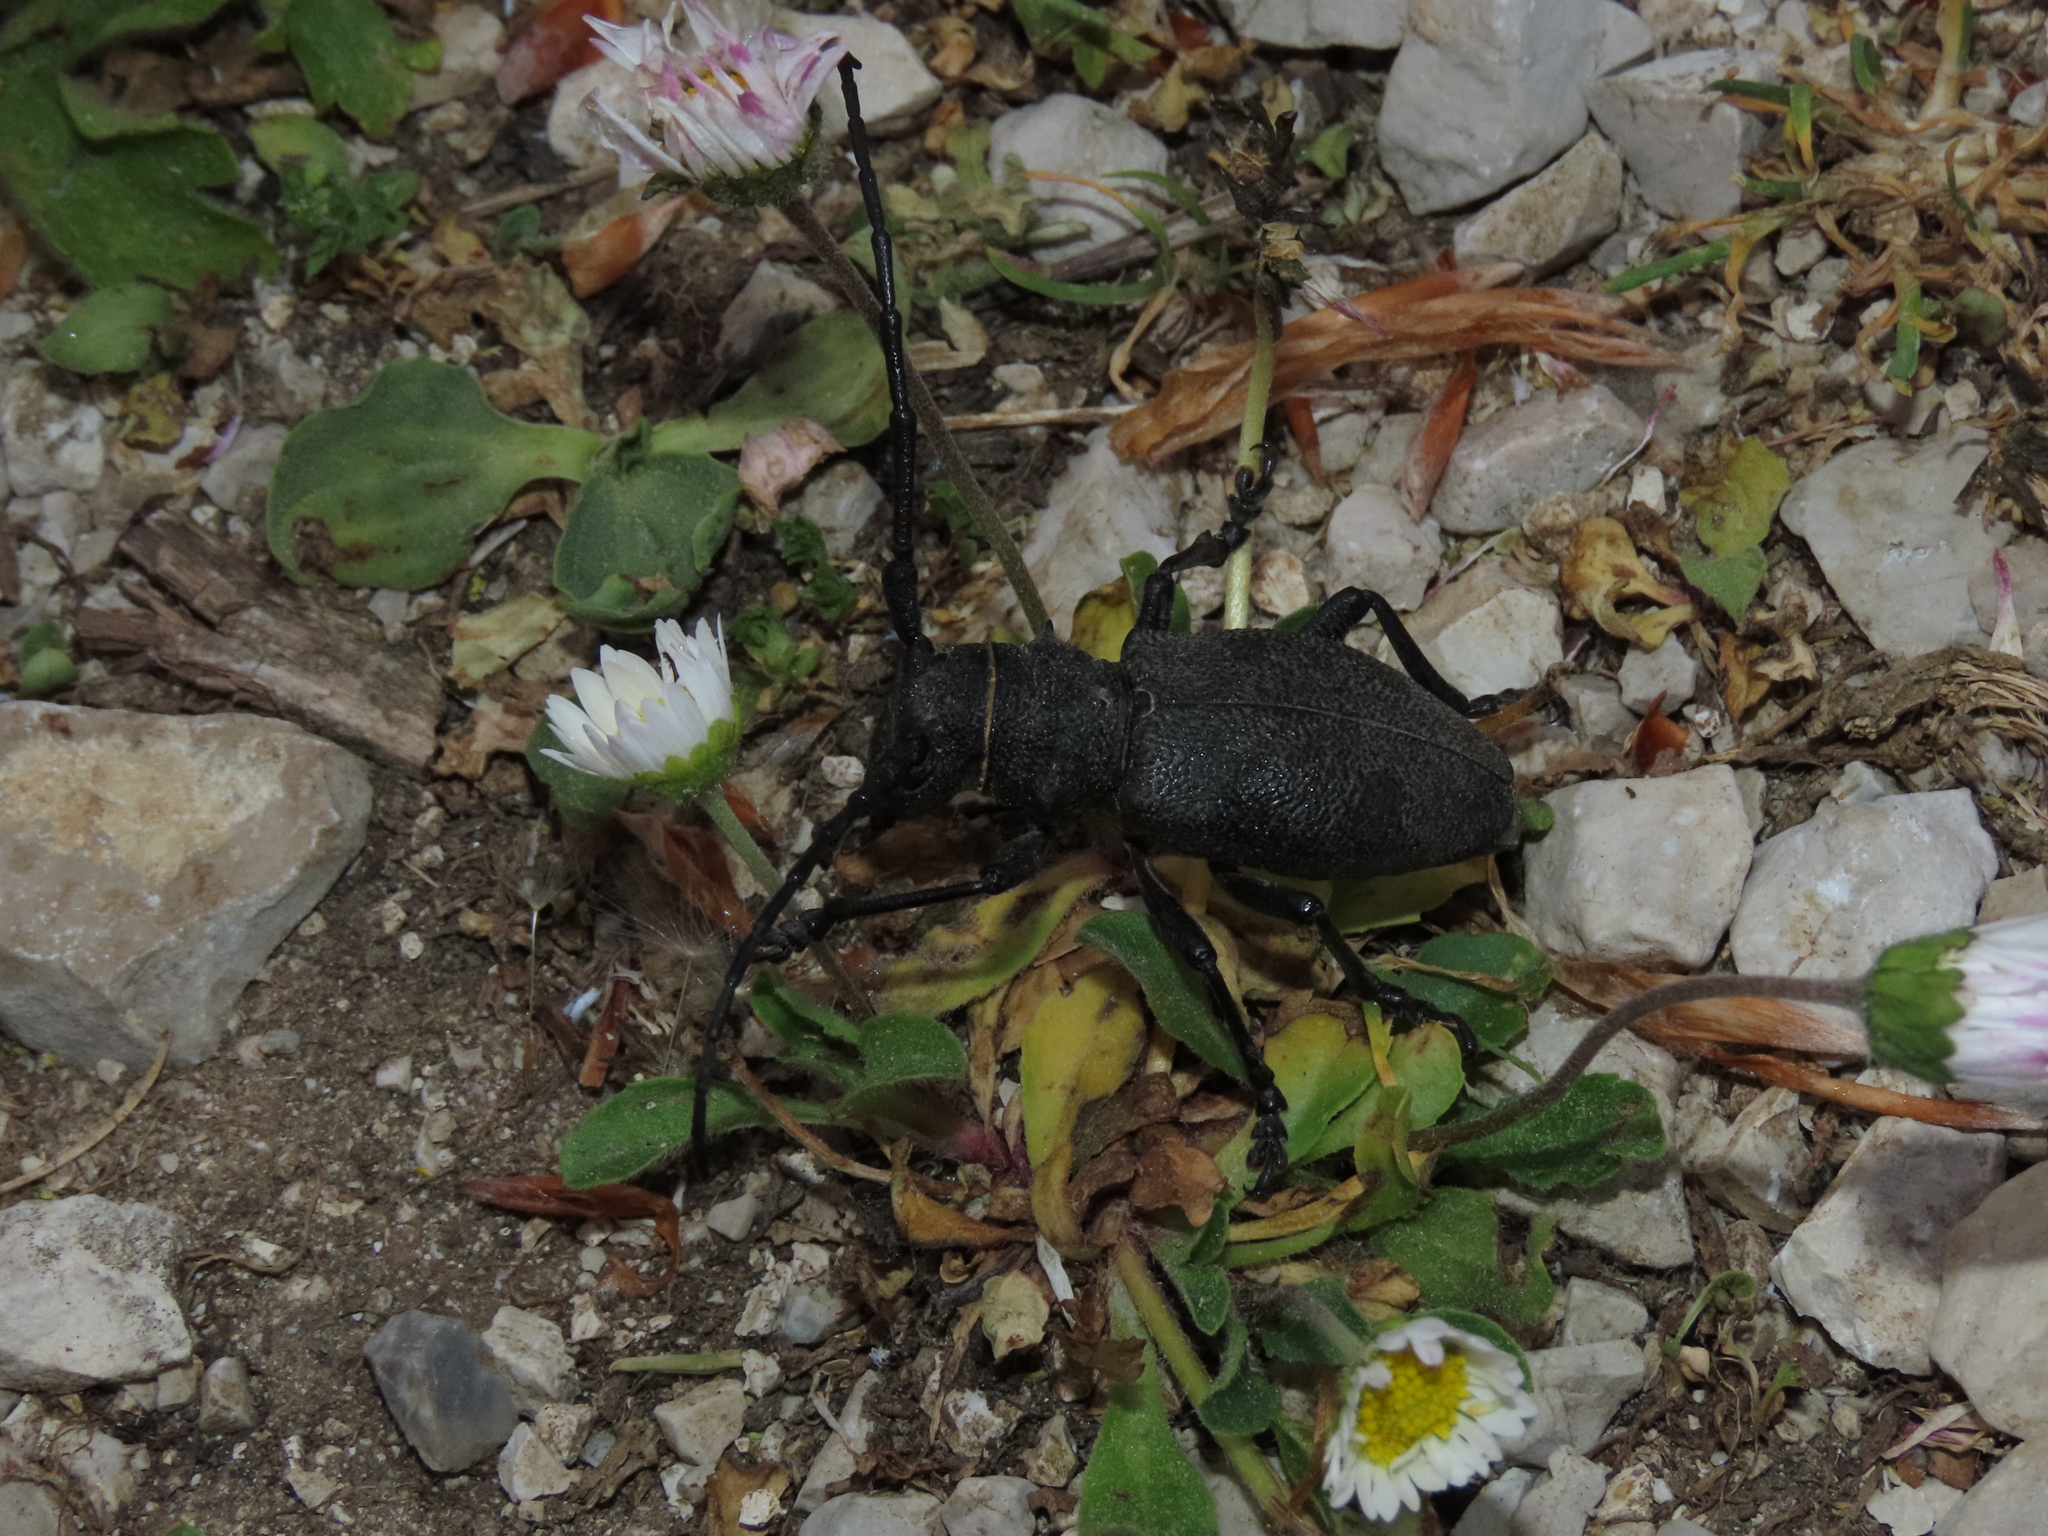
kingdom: Animalia
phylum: Arthropoda
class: Insecta
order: Coleoptera
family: Cerambycidae
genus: Morimus
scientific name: Morimus asper
